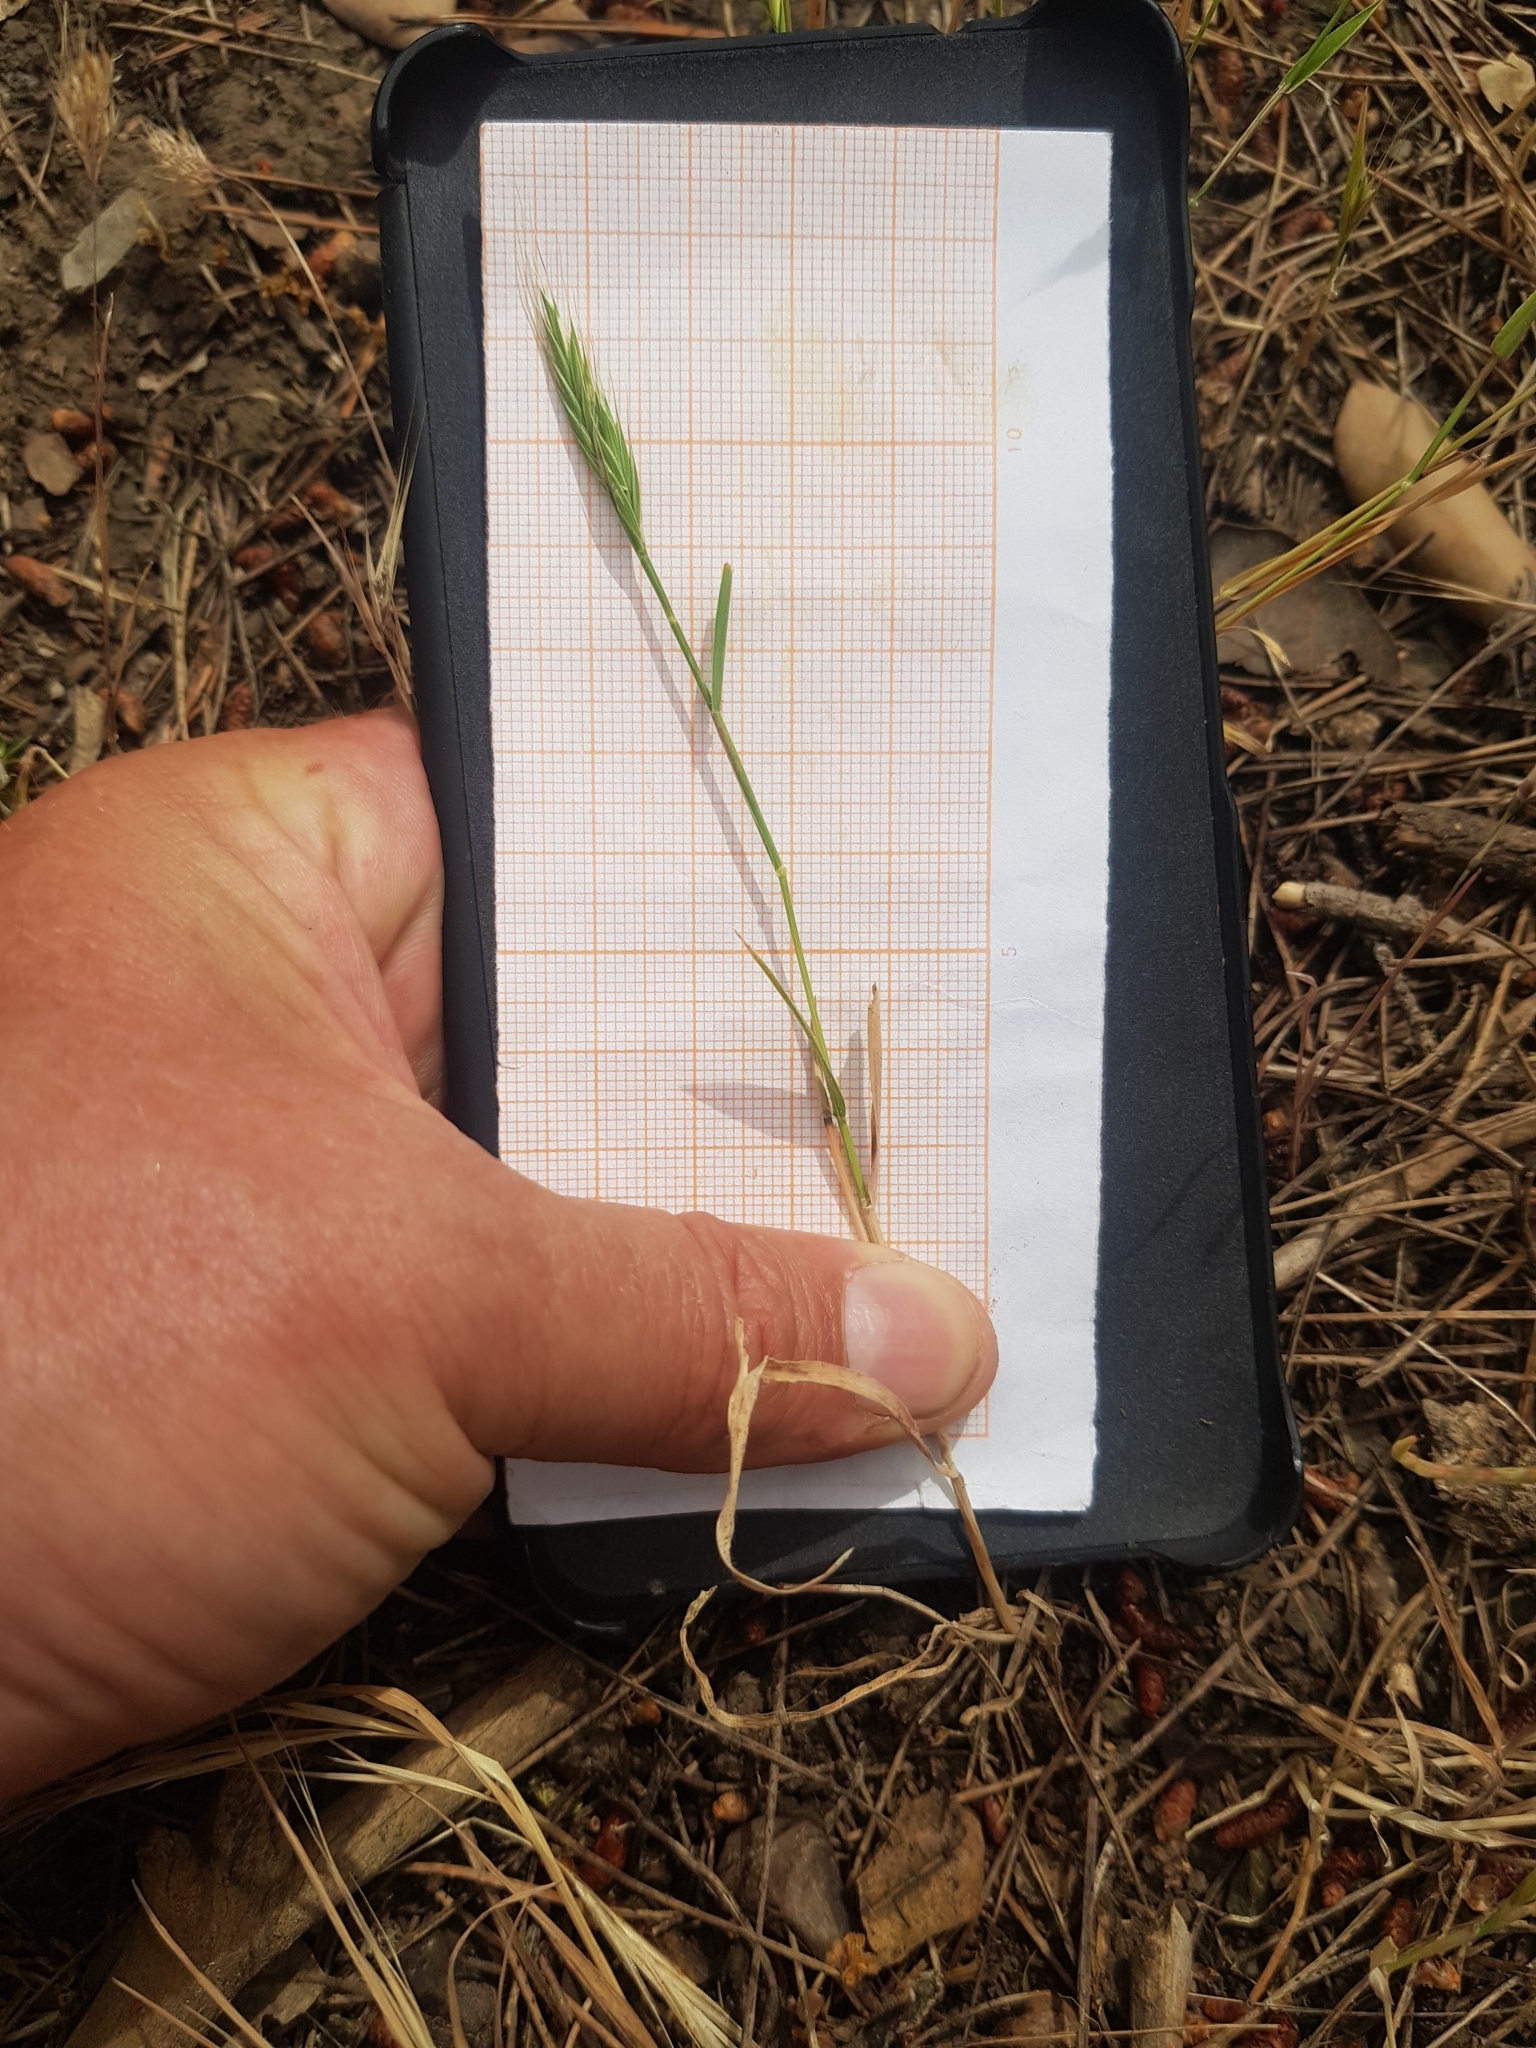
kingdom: Plantae
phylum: Tracheophyta
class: Liliopsida
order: Poales
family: Poaceae
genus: Brachypodium
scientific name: Brachypodium distachyon
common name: Stiff brome
